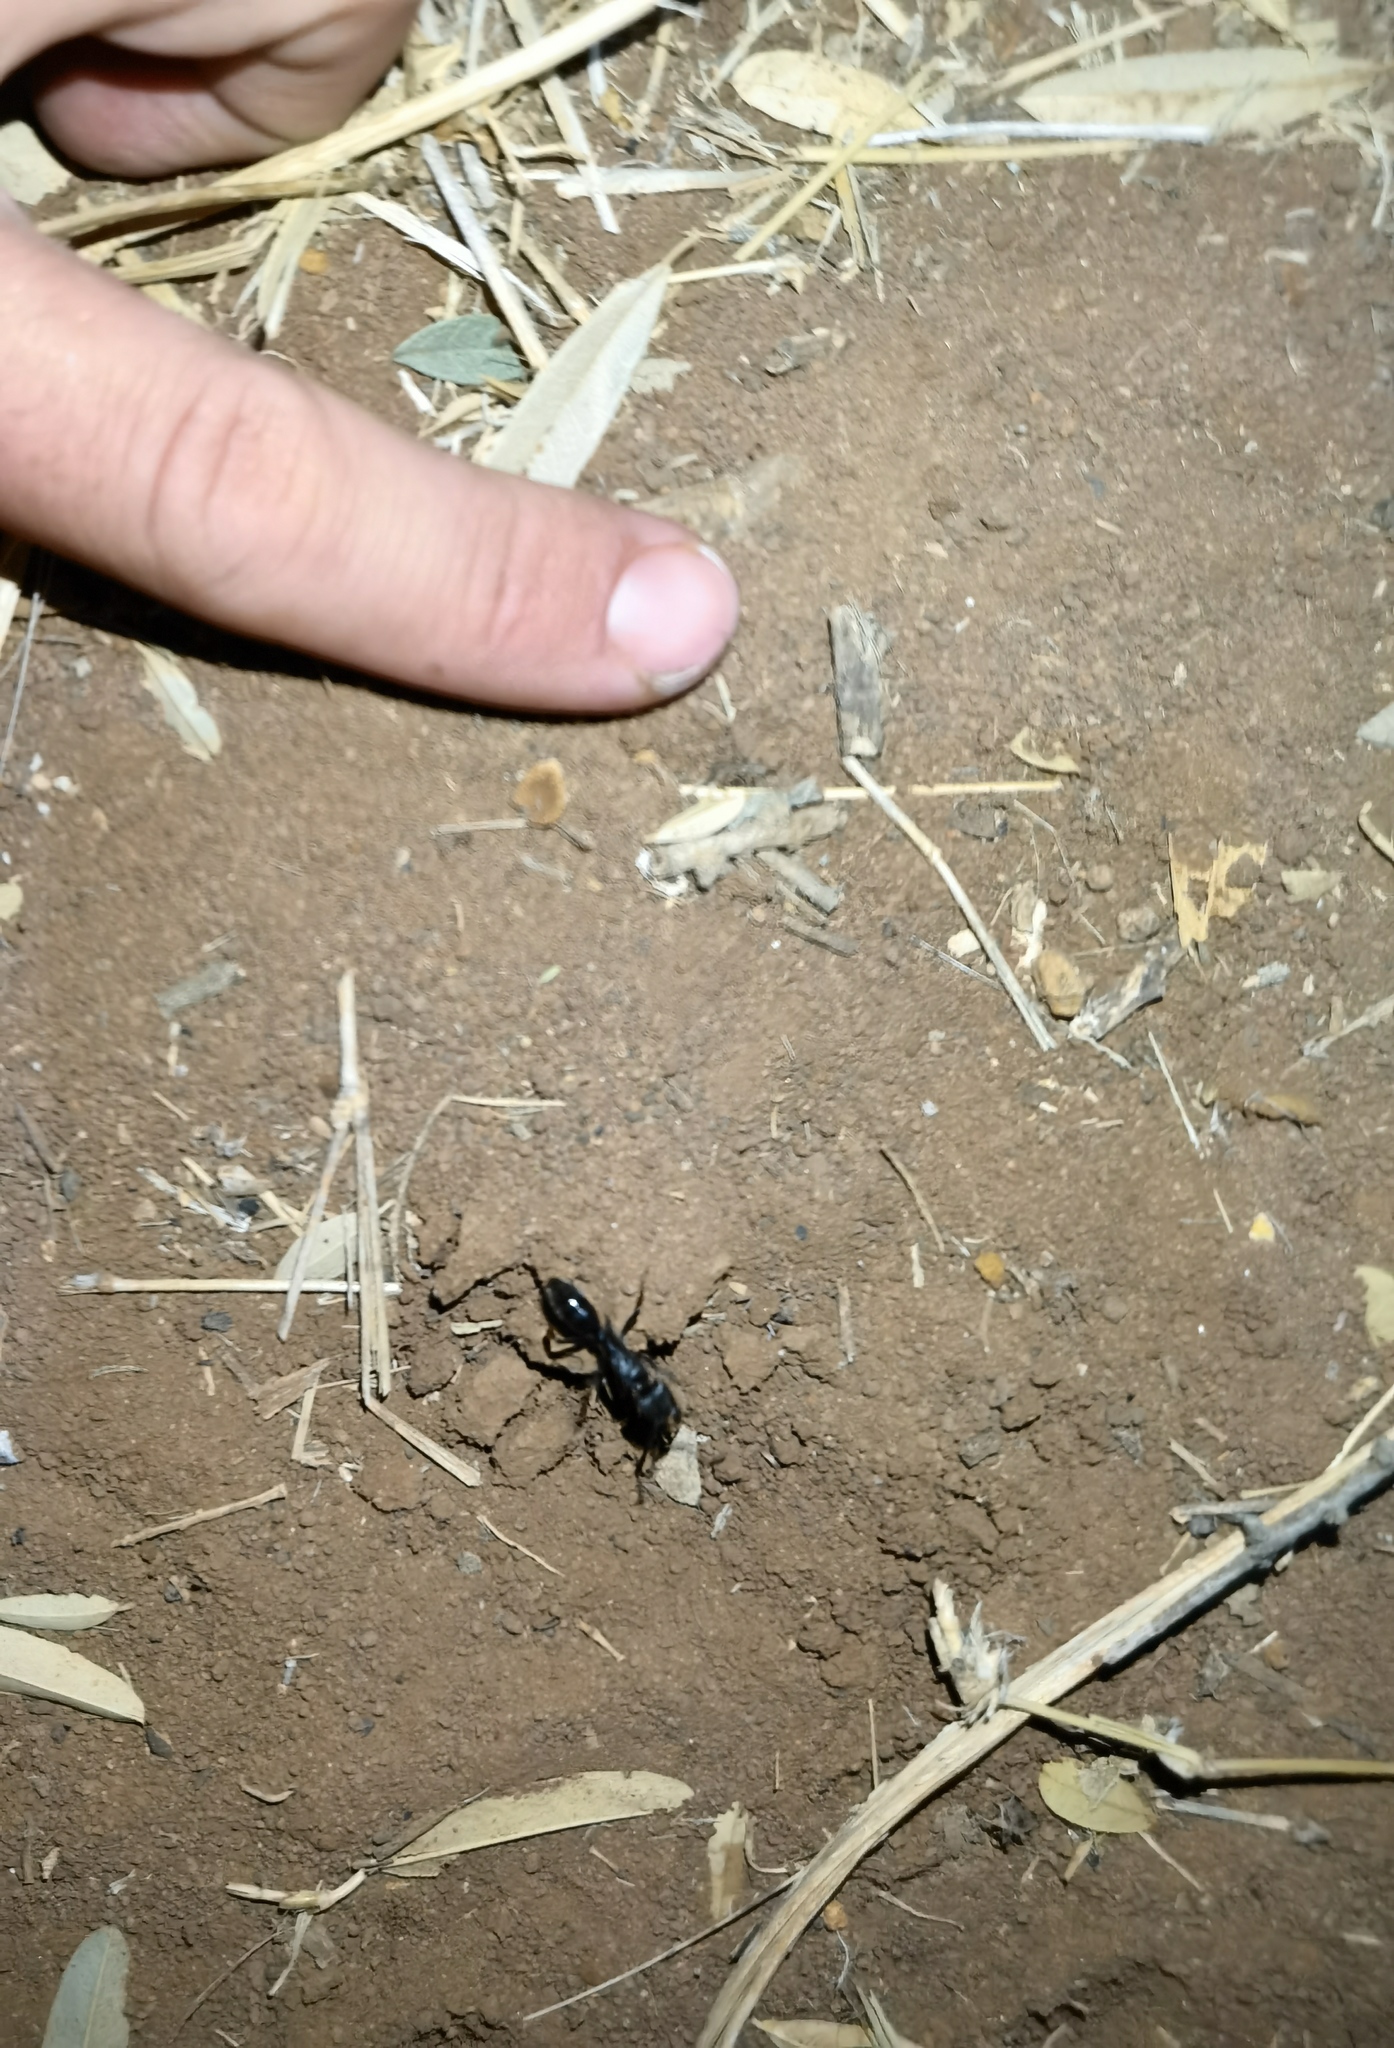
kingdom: Animalia
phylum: Arthropoda
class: Insecta
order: Hymenoptera
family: Formicidae
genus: Paltothyreus
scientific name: Paltothyreus tarsatus
